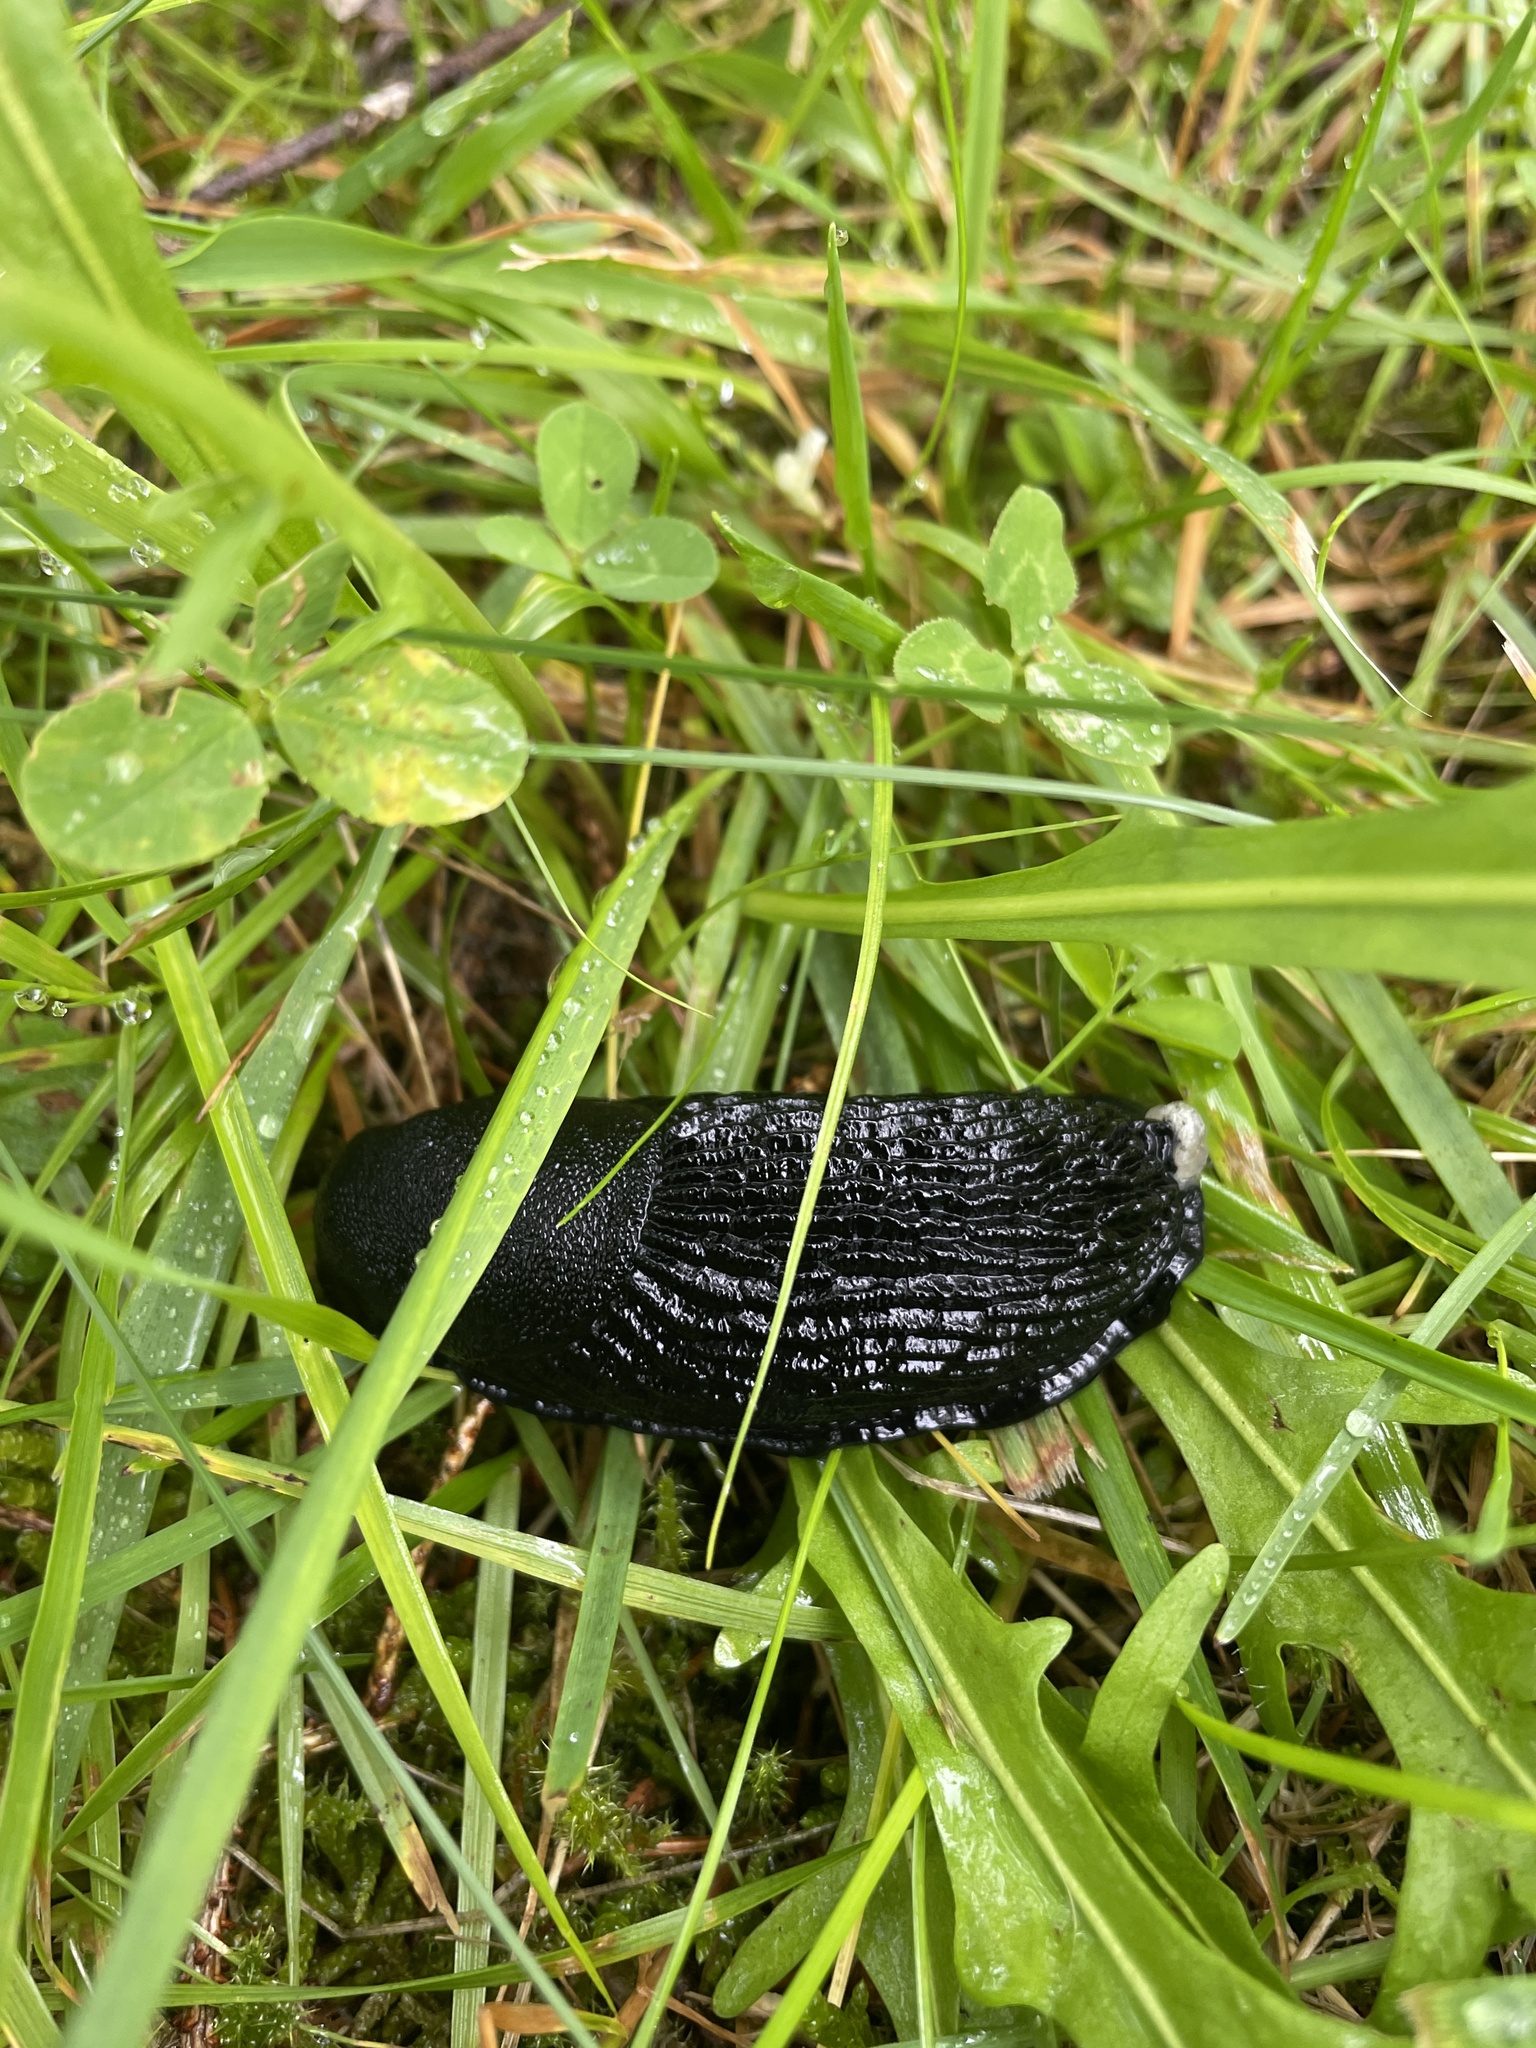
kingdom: Animalia
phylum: Mollusca
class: Gastropoda
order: Stylommatophora
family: Arionidae
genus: Arion
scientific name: Arion ater
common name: Black arion
